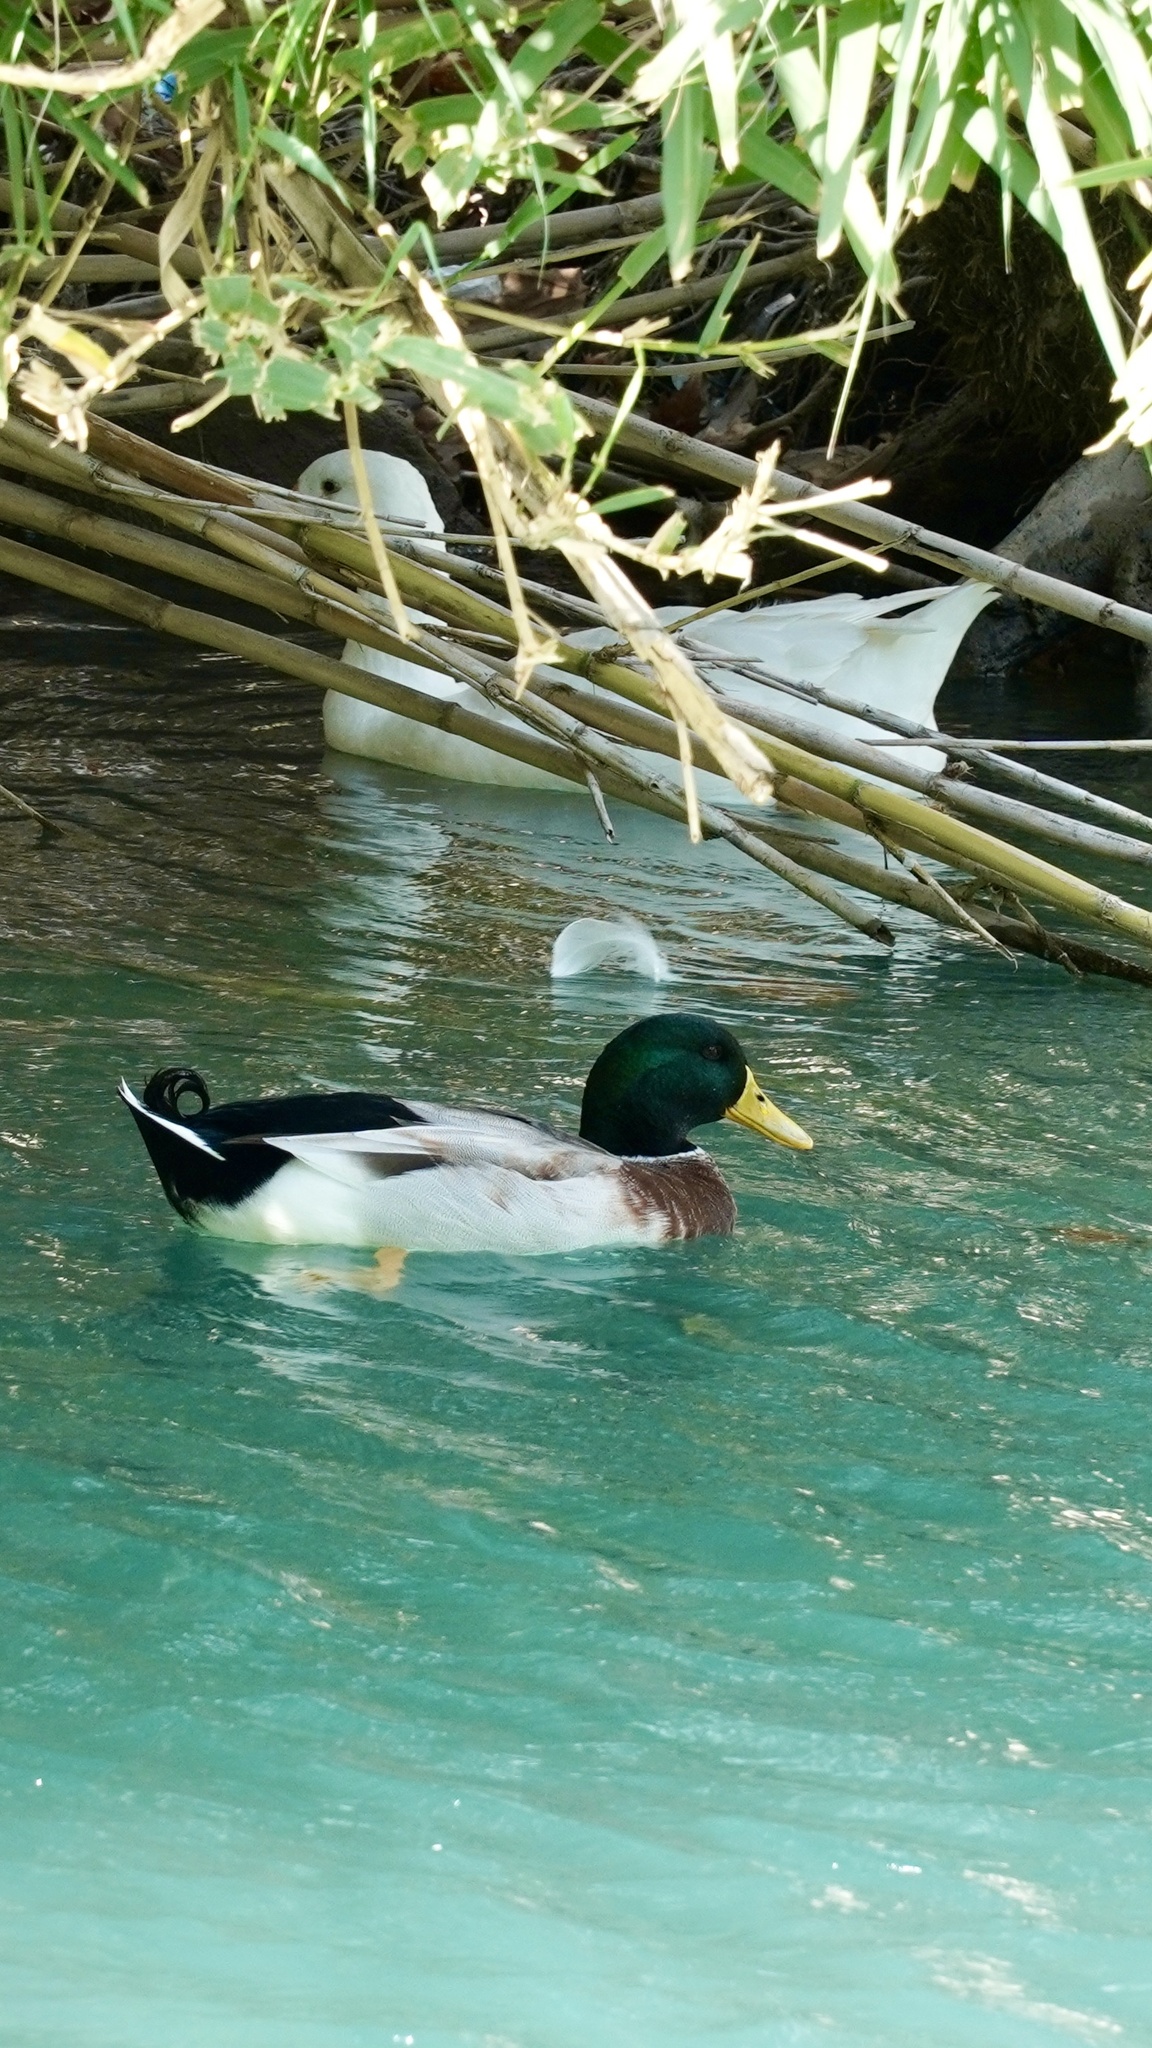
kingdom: Animalia
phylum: Chordata
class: Aves
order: Anseriformes
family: Anatidae
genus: Anas
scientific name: Anas platyrhynchos
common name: Mallard
